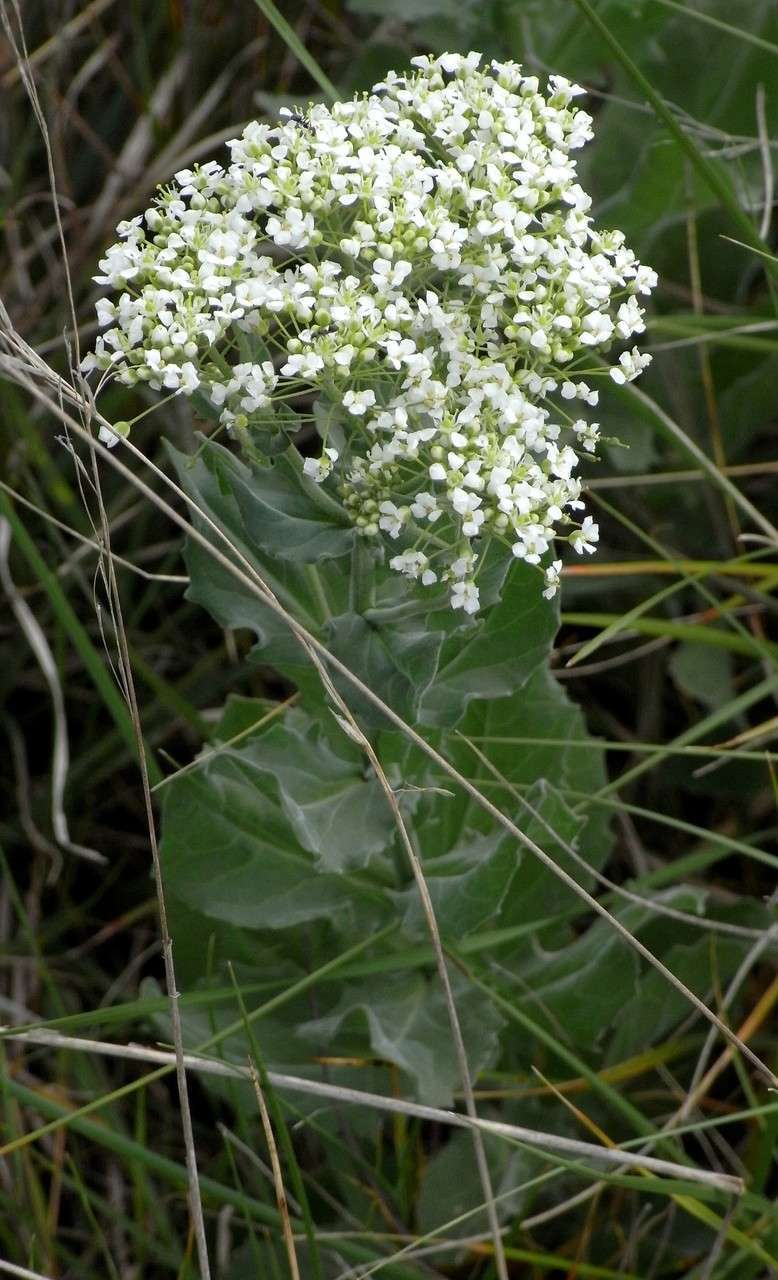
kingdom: Plantae
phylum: Tracheophyta
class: Magnoliopsida
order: Brassicales
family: Brassicaceae
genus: Lepidium
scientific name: Lepidium draba
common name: Hoary cress
